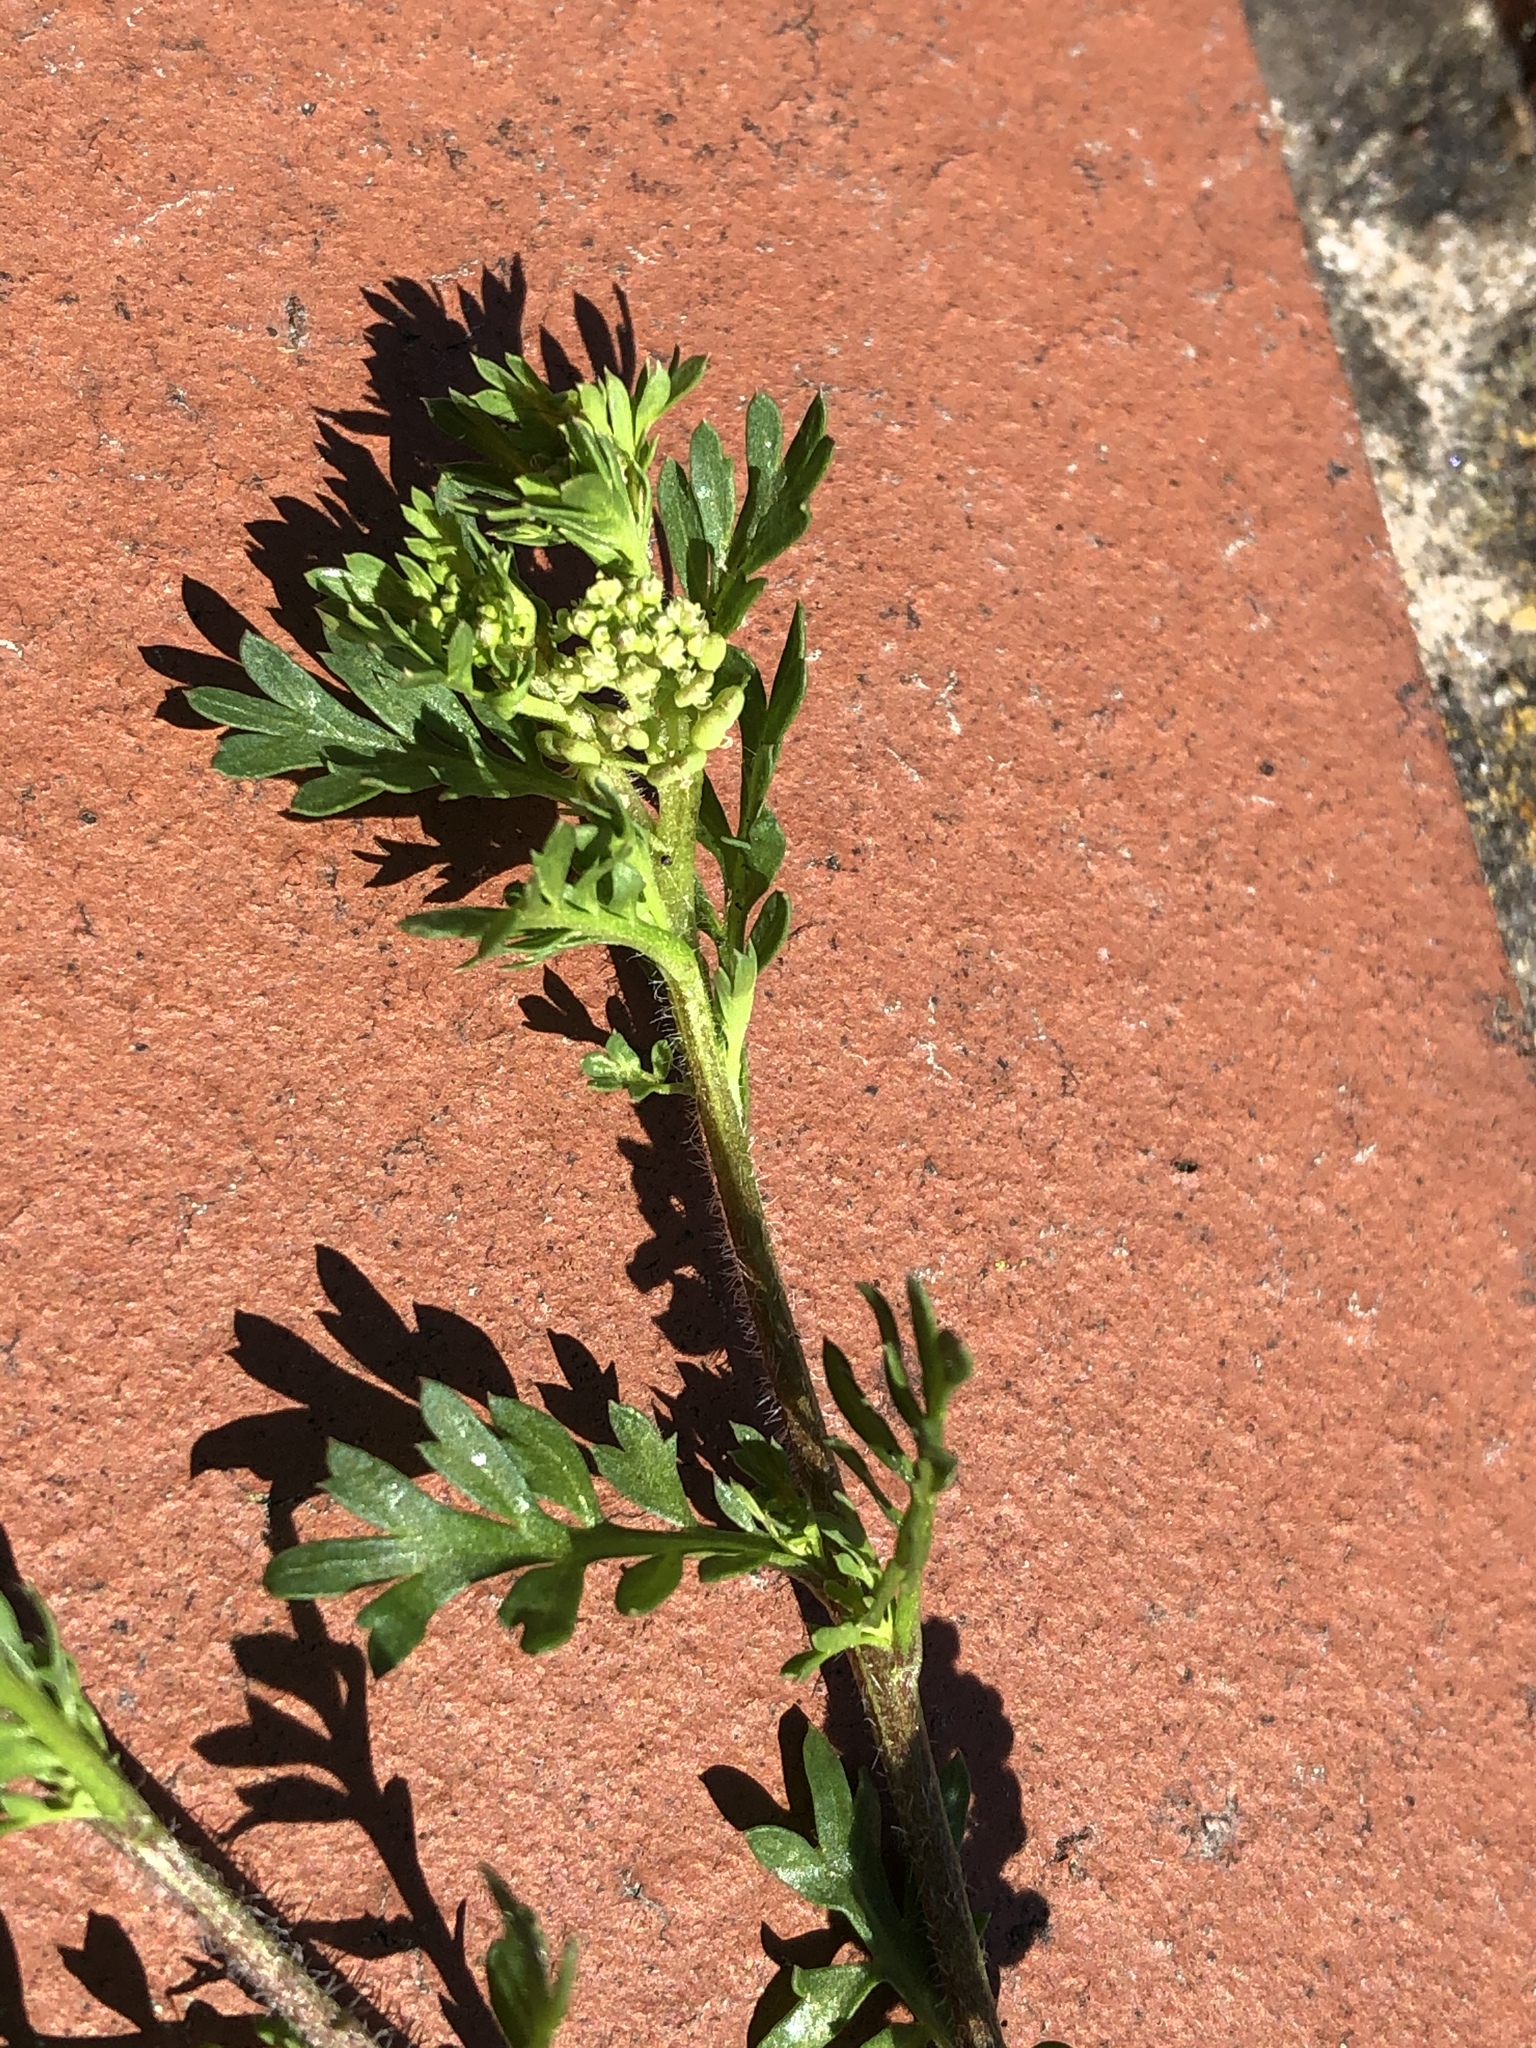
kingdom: Plantae
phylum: Tracheophyta
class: Magnoliopsida
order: Brassicales
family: Brassicaceae
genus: Lepidium
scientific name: Lepidium didymum
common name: Lesser swinecress
